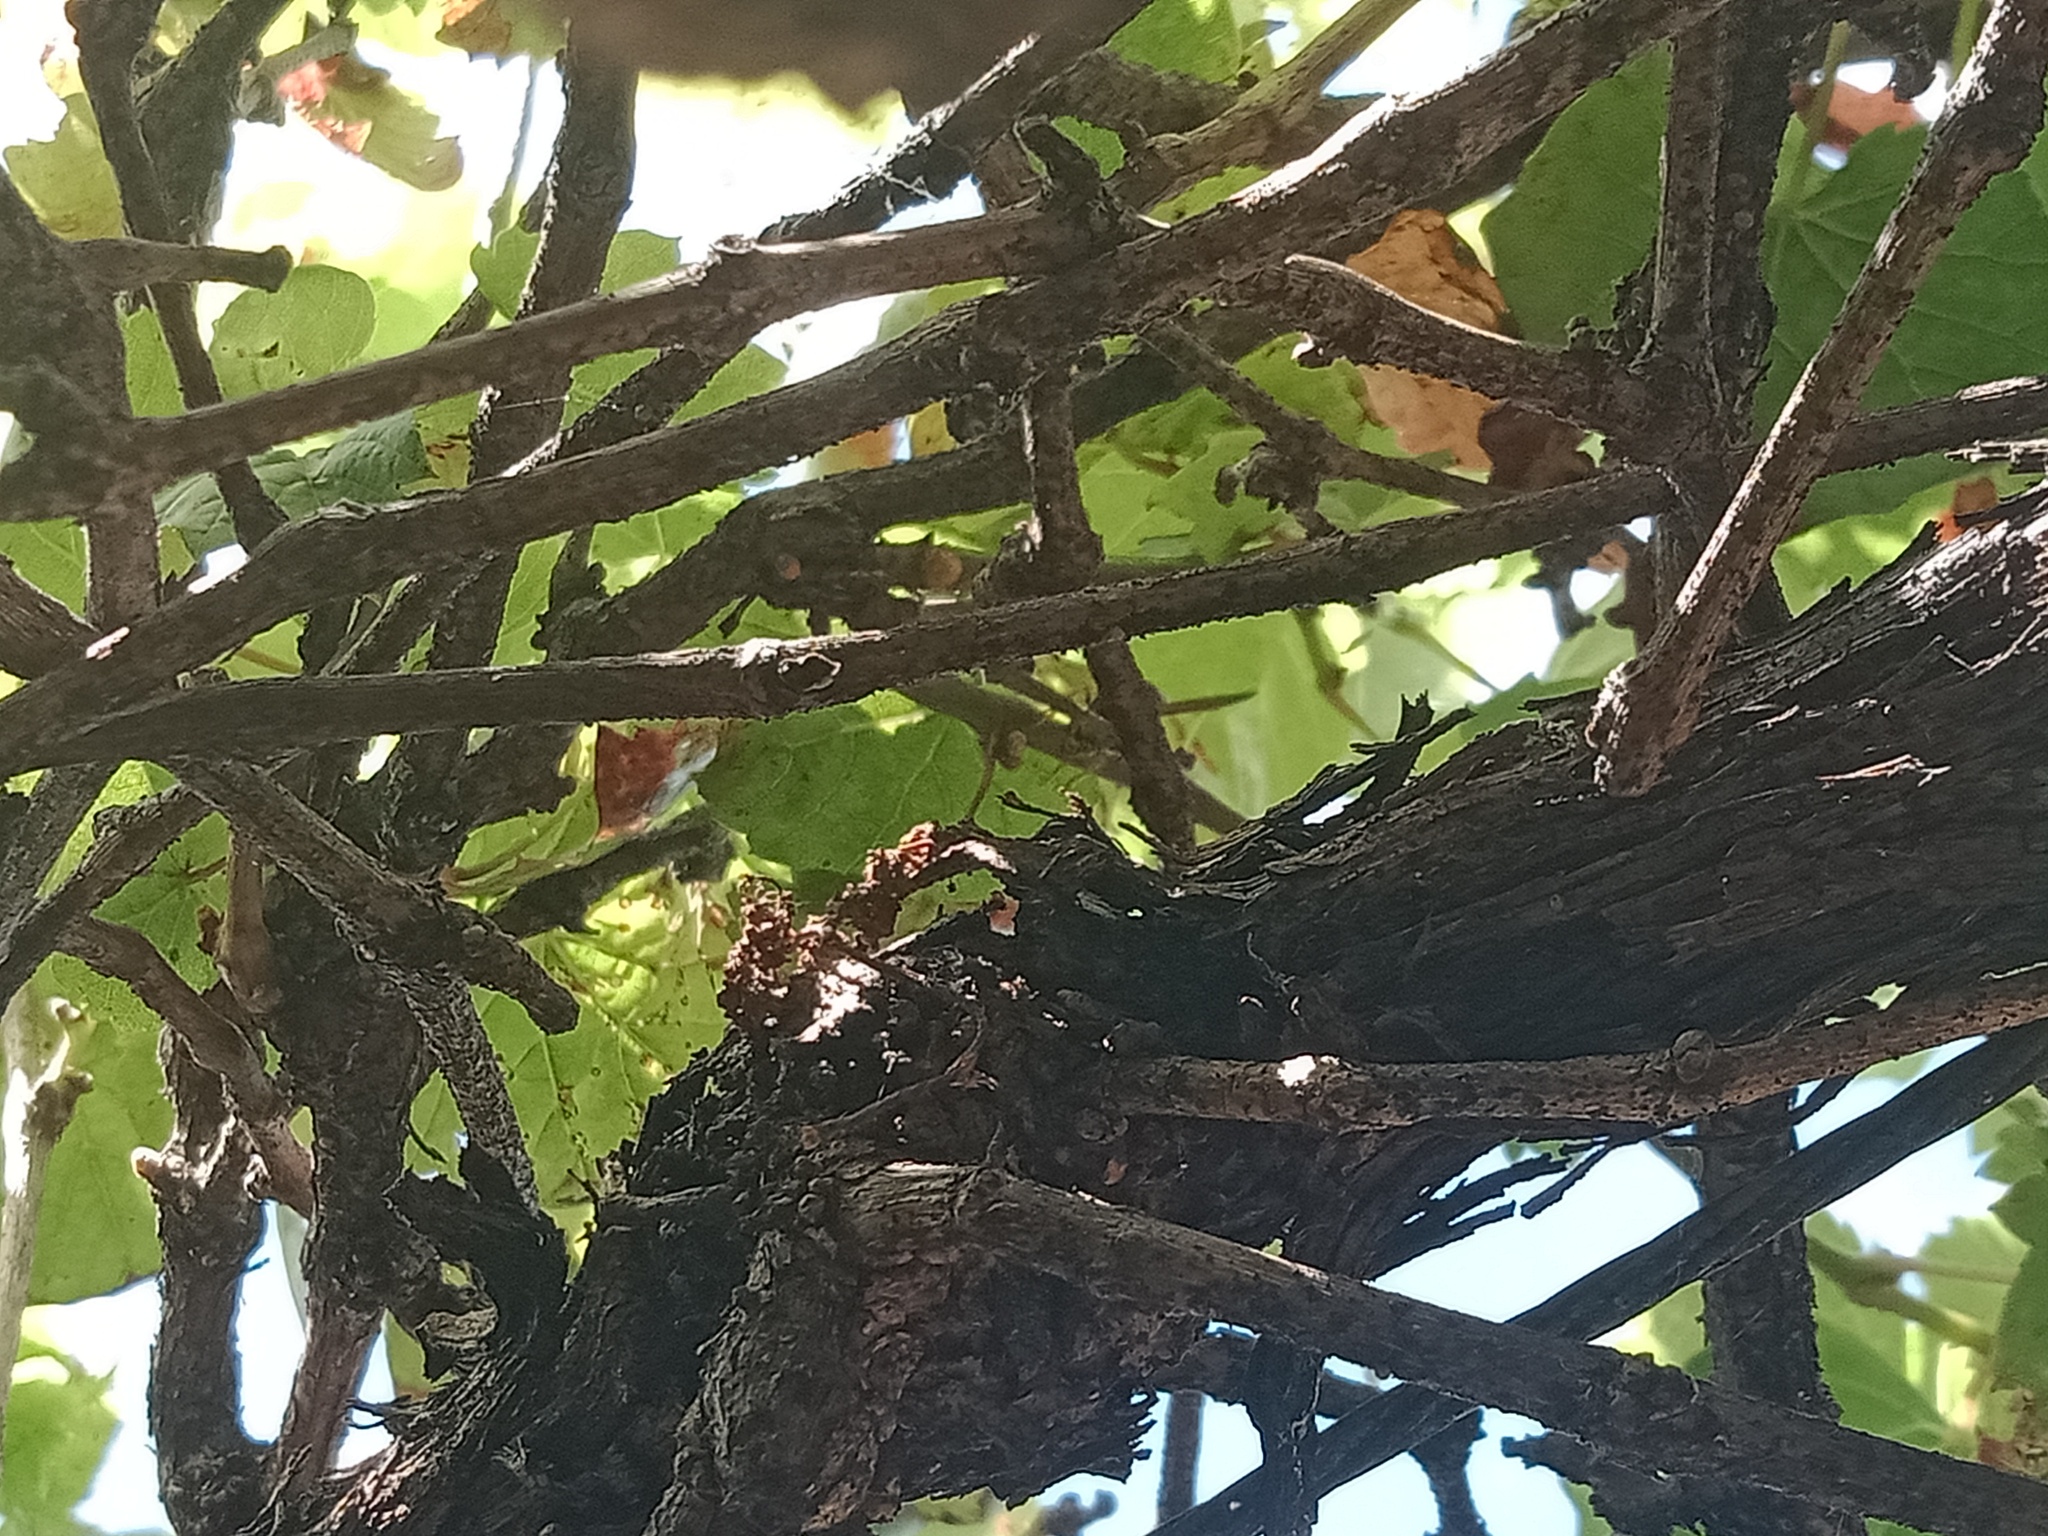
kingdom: Animalia
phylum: Arthropoda
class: Insecta
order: Hymenoptera
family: Eumenidae
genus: Polistes
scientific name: Polistes chinensis
